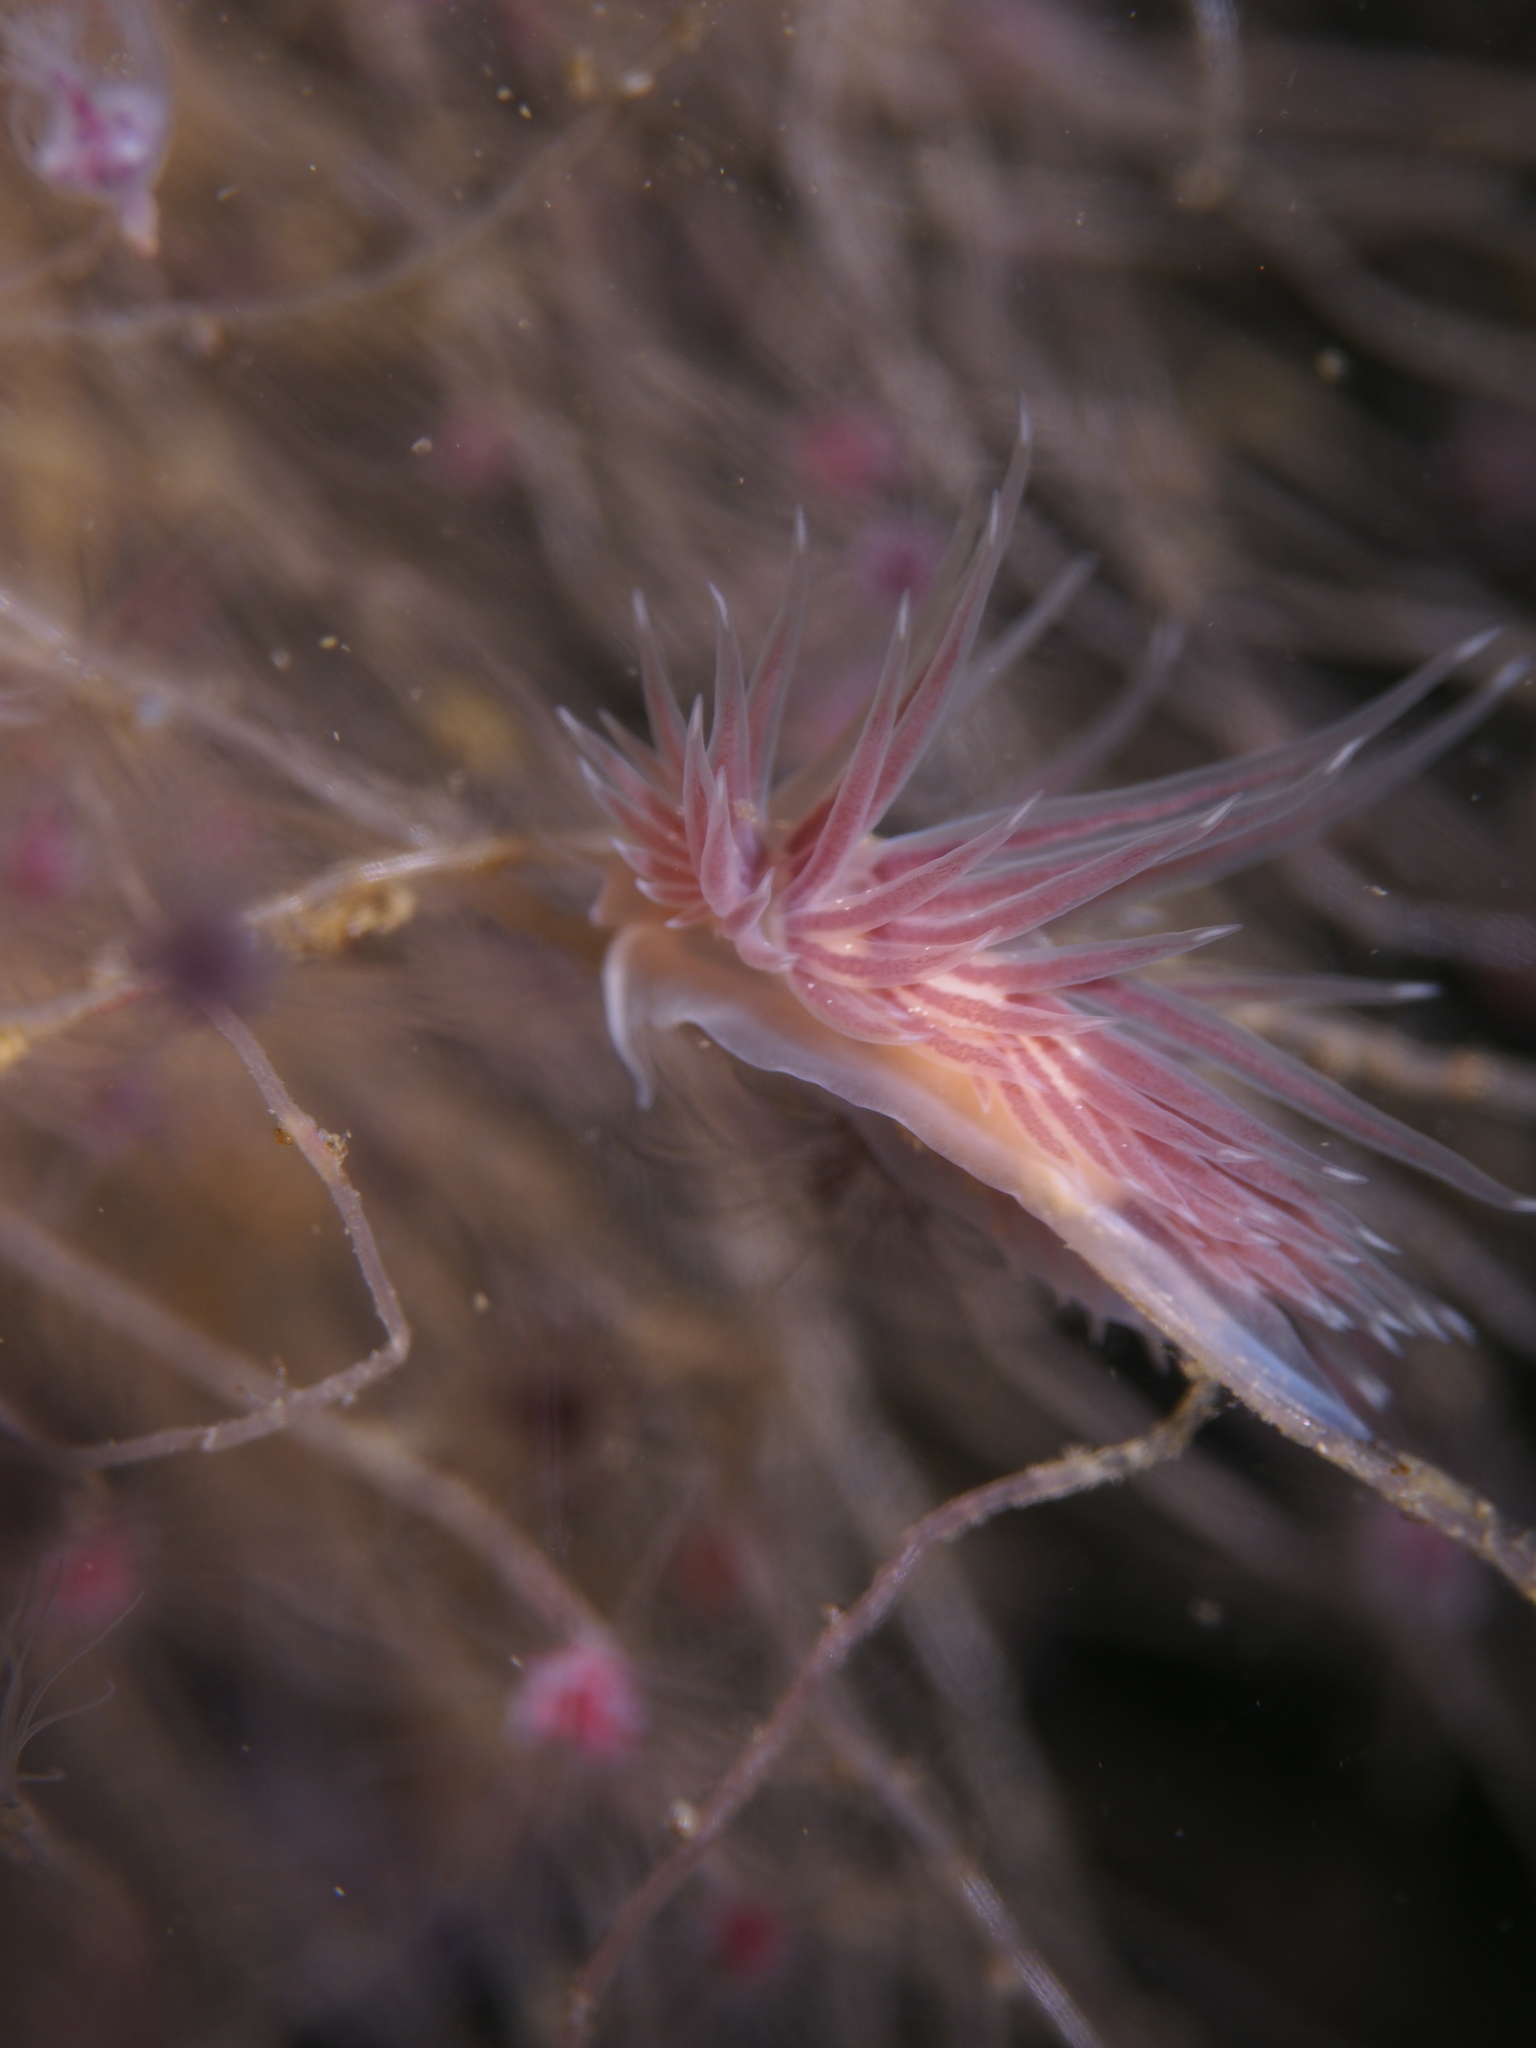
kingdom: Animalia
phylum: Mollusca
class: Gastropoda
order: Nudibranchia
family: Cumanotidae
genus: Cumanotus
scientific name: Cumanotus beaumonti
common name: Polyp aeolis
